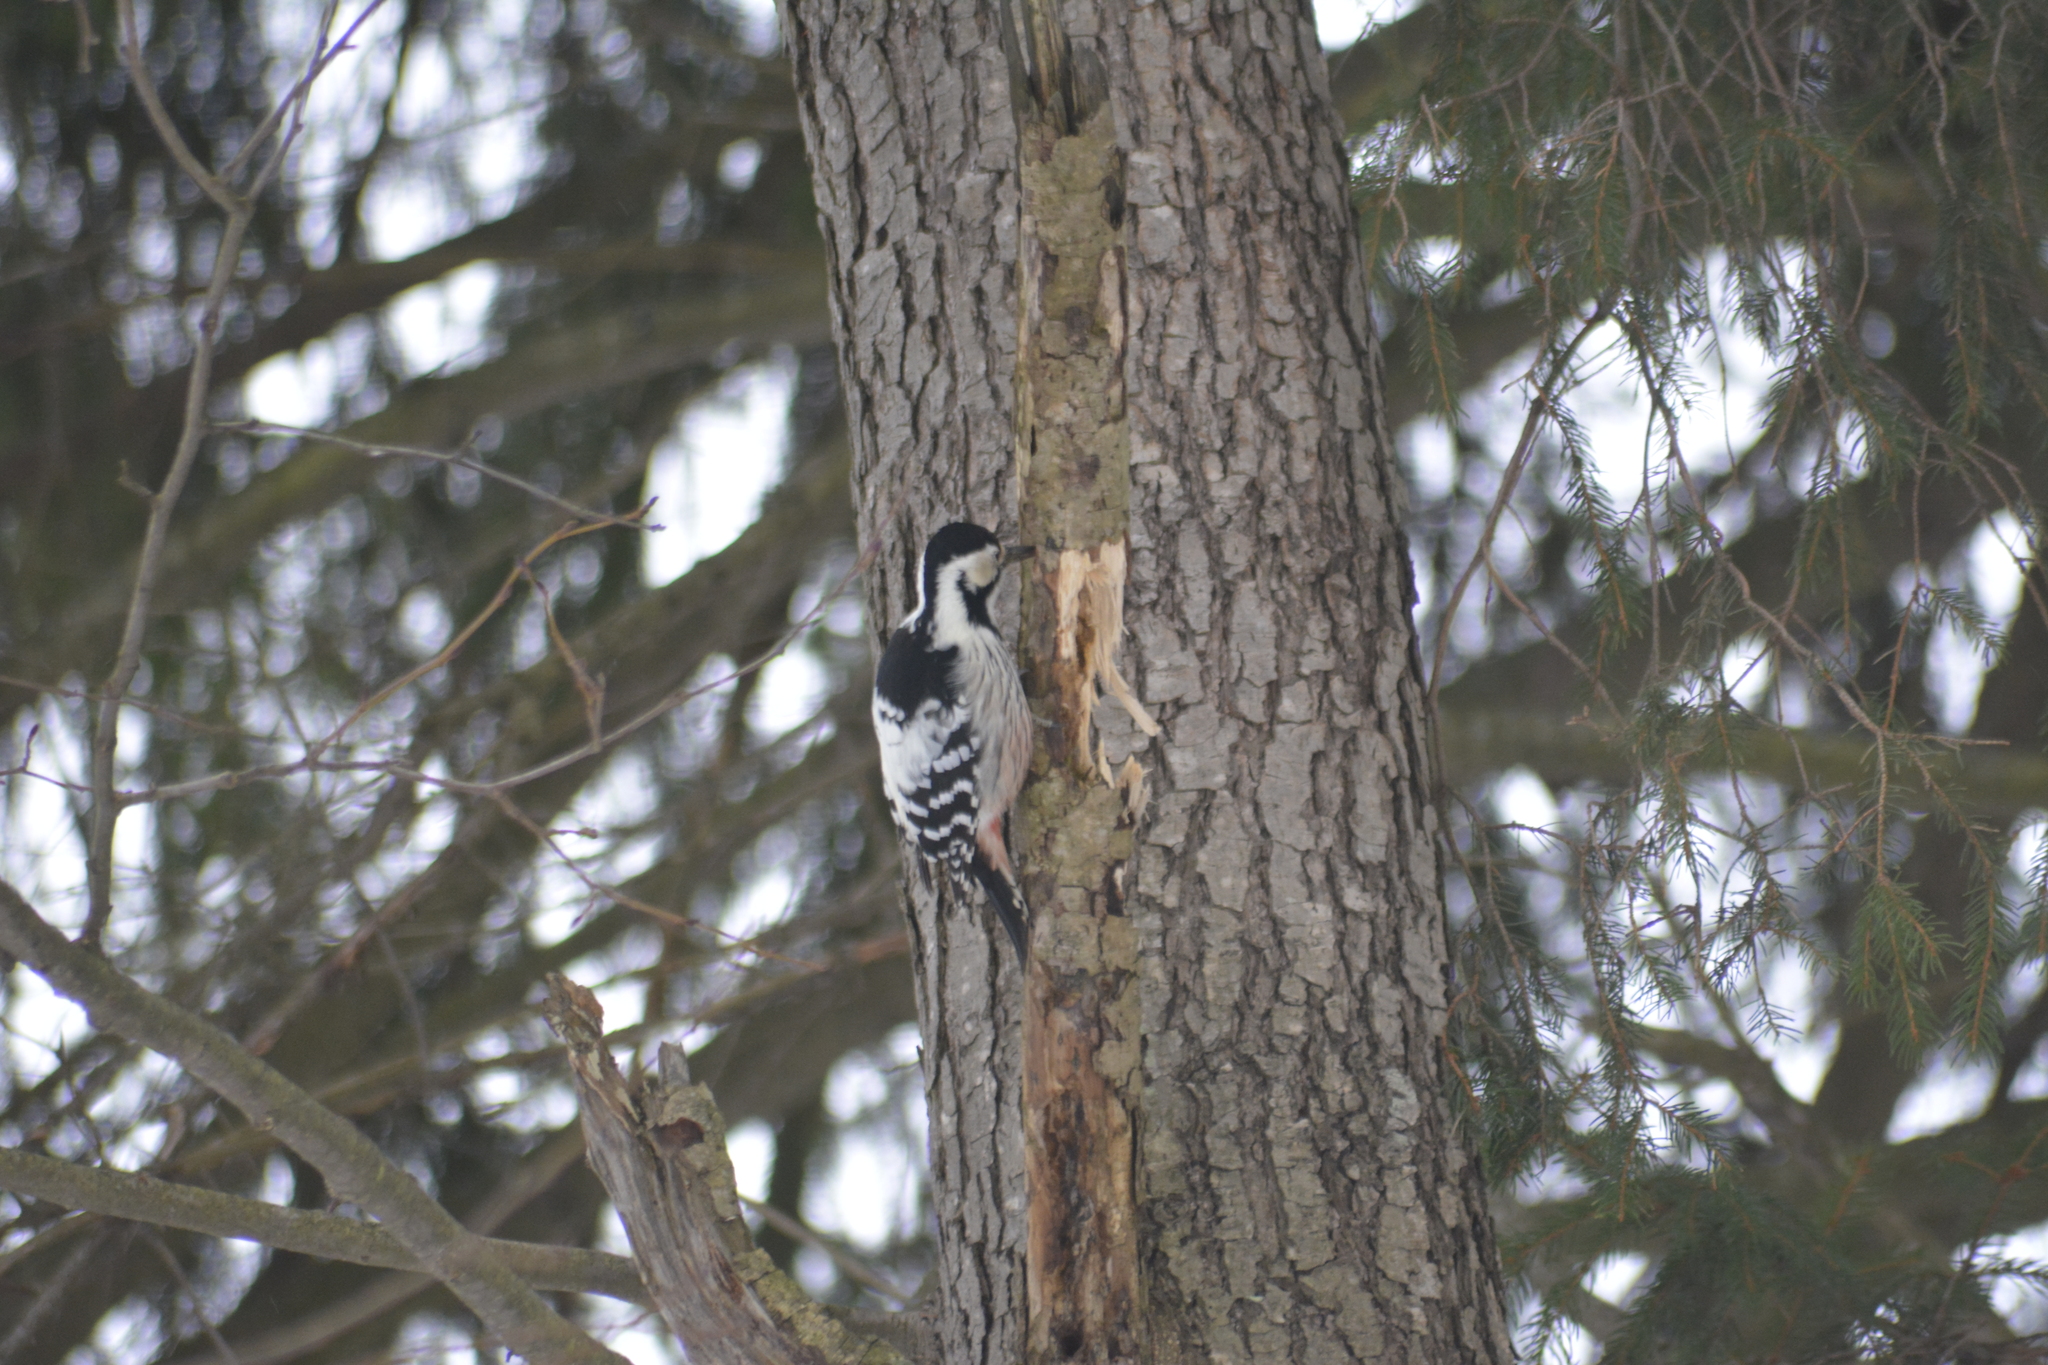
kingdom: Animalia
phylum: Chordata
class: Aves
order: Piciformes
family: Picidae
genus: Dendrocopos
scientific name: Dendrocopos leucotos
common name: White-backed woodpecker
